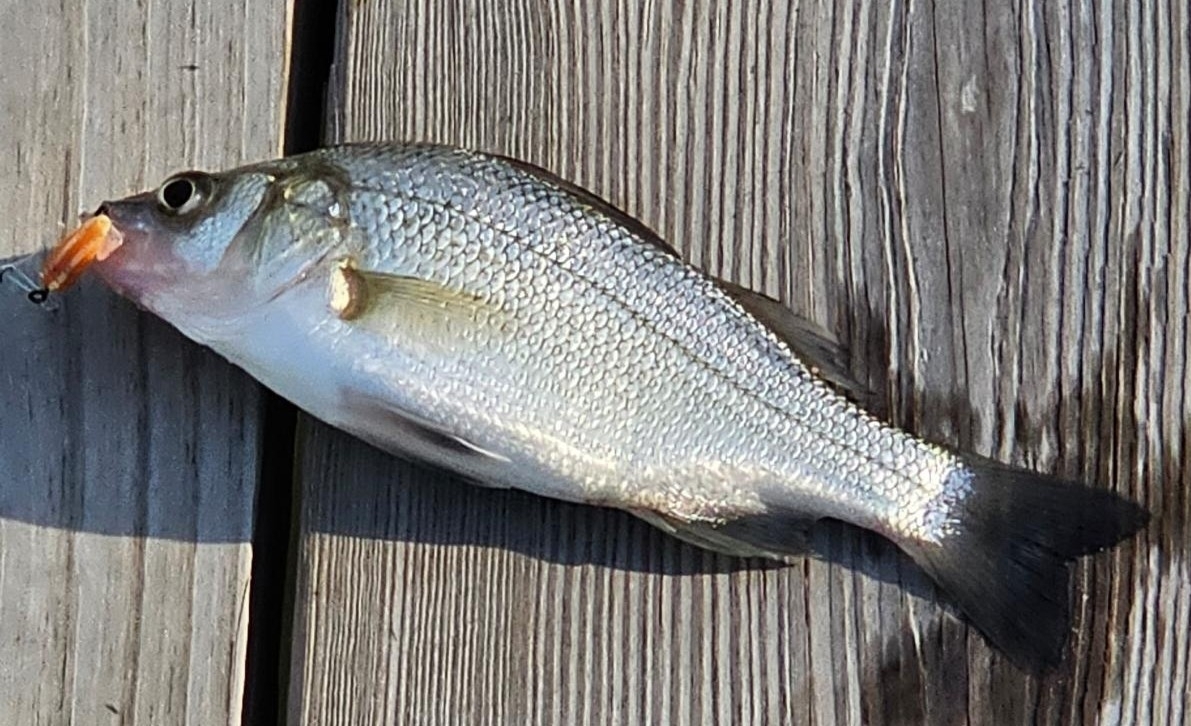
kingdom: Animalia
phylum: Chordata
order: Perciformes
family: Moronidae
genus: Morone
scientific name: Morone americana
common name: White perch
